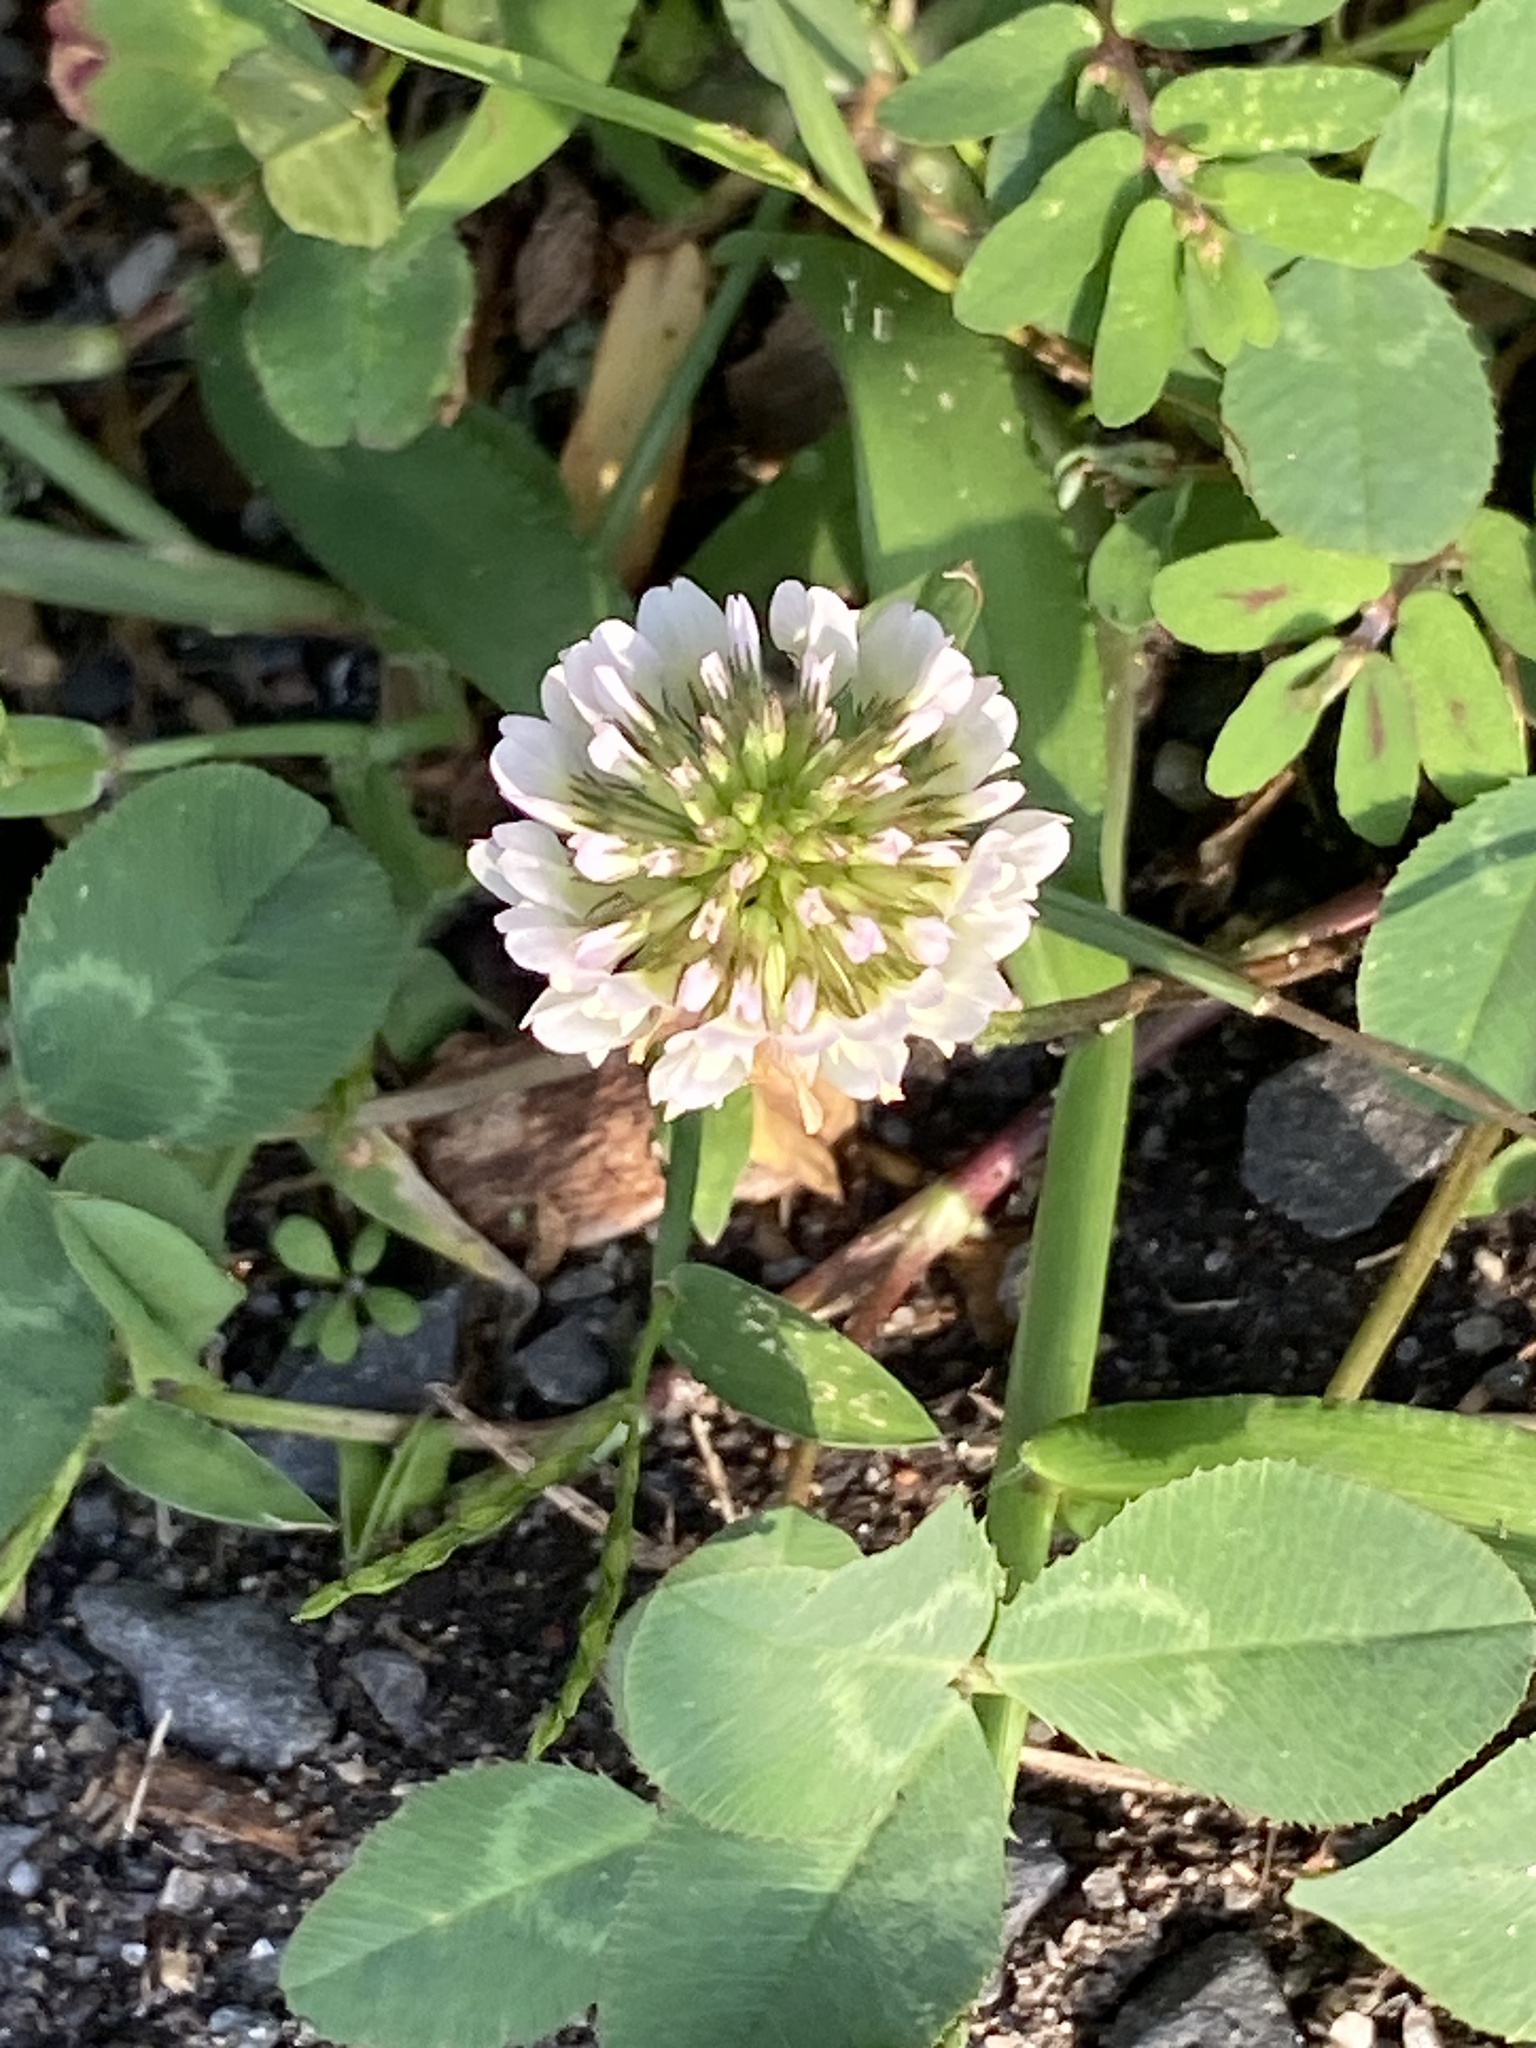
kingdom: Plantae
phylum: Tracheophyta
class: Magnoliopsida
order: Fabales
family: Fabaceae
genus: Trifolium
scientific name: Trifolium repens
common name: White clover
